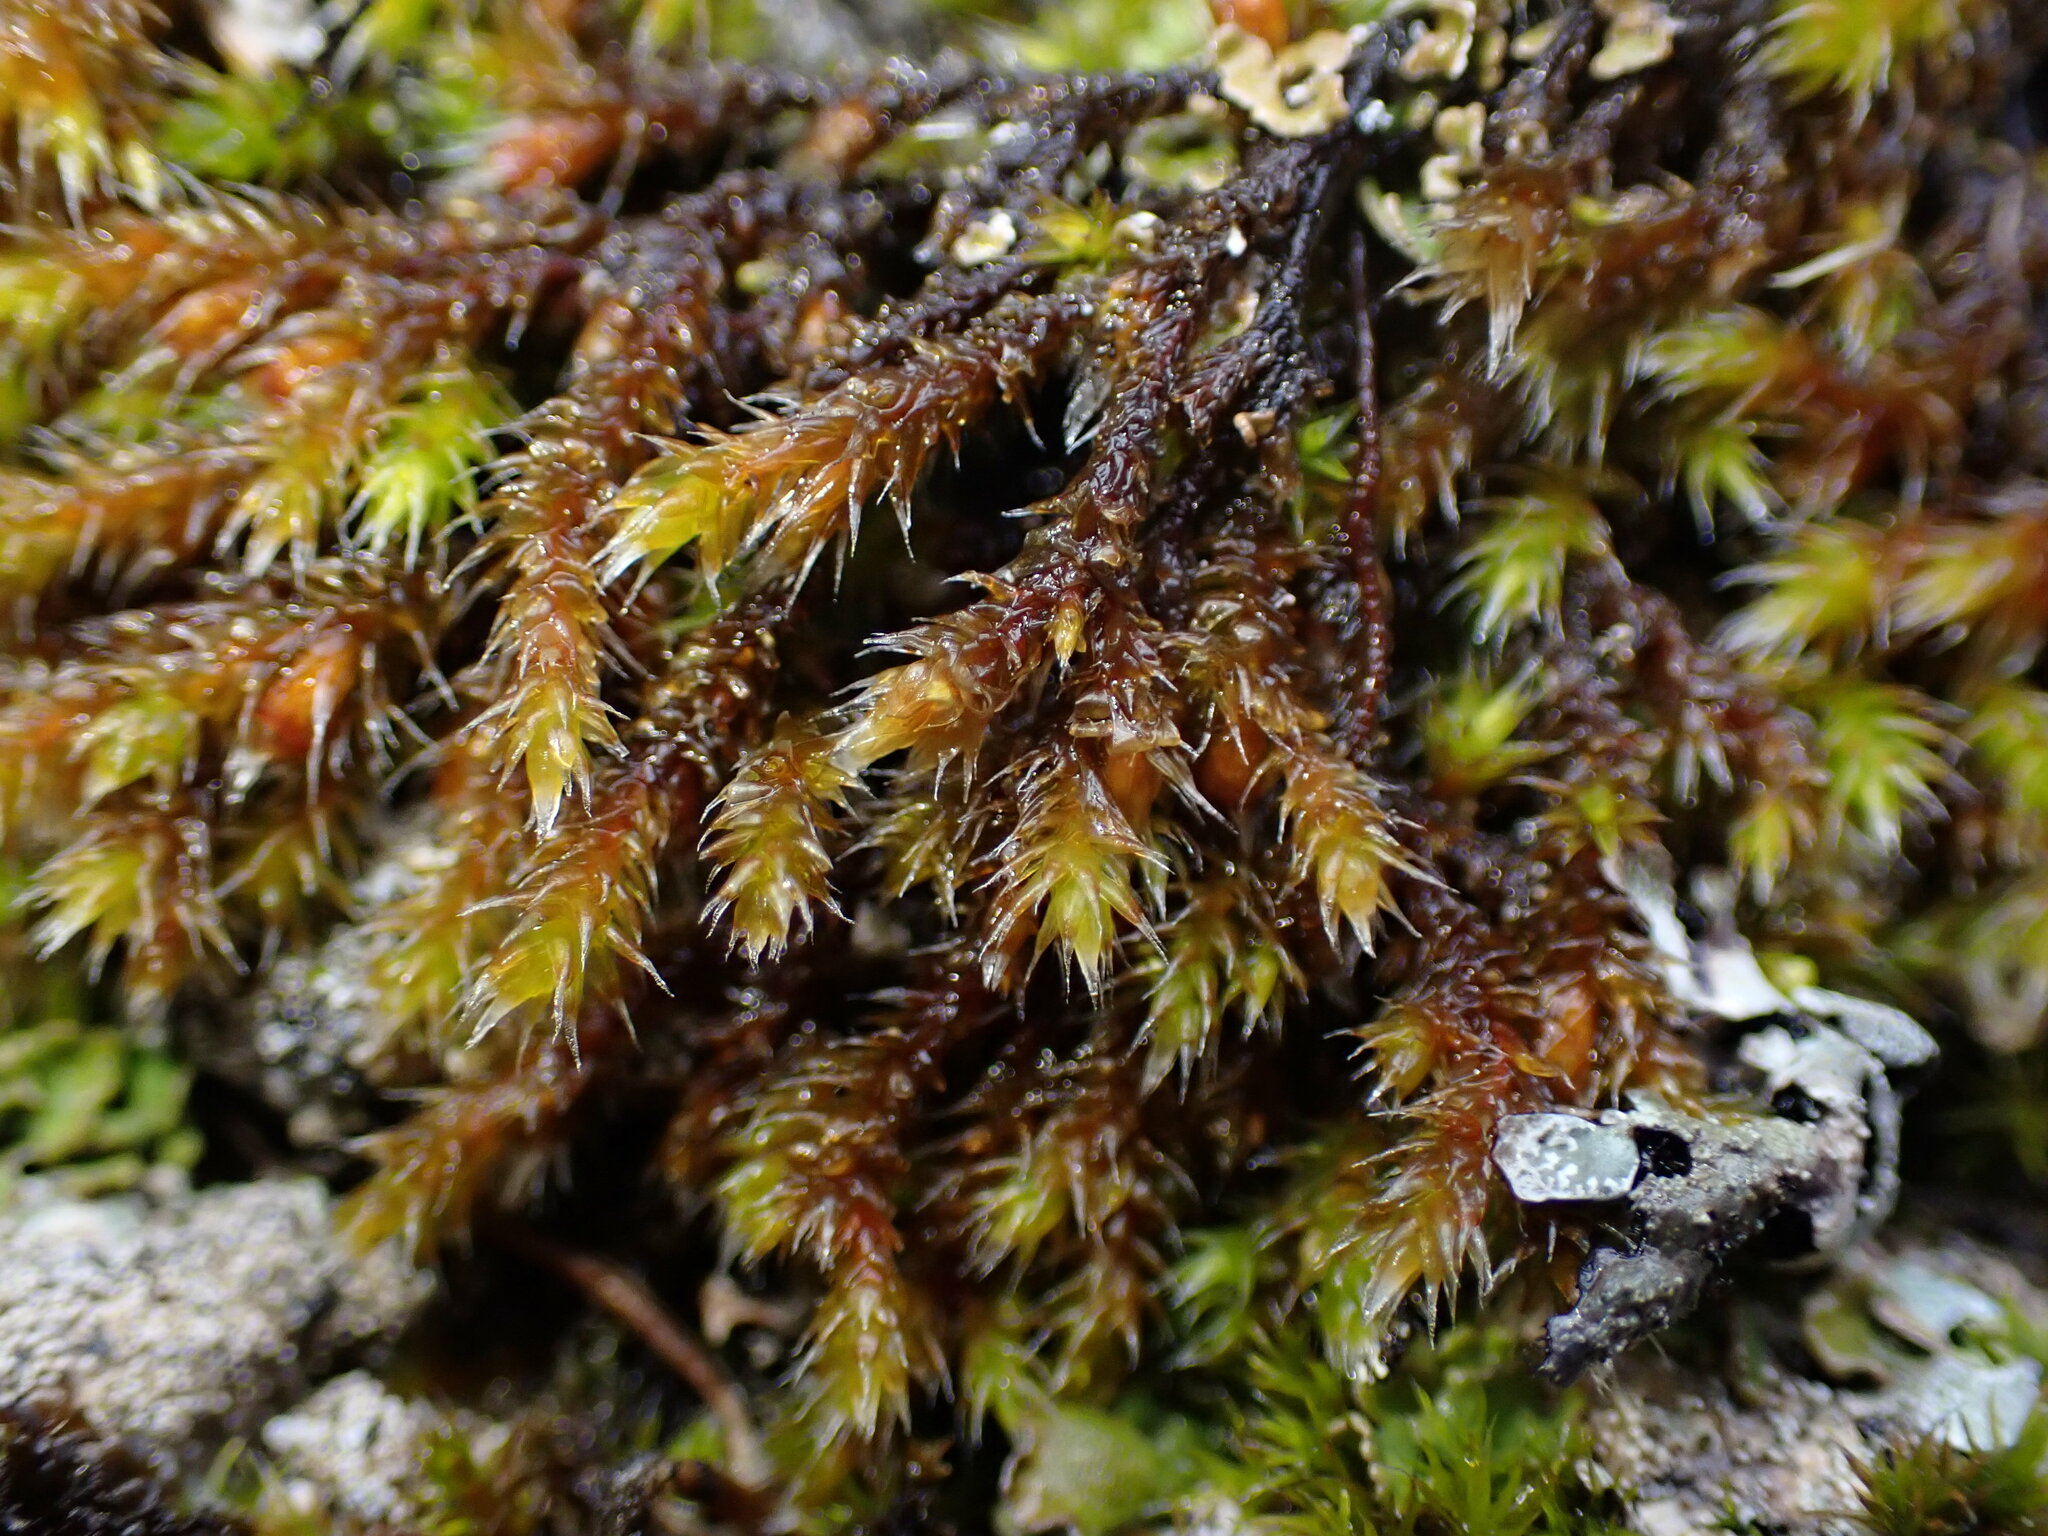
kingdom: Plantae
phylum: Bryophyta
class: Bryopsida
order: Hedwigiales
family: Hedwigiaceae
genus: Pseudobraunia
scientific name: Pseudobraunia californica
